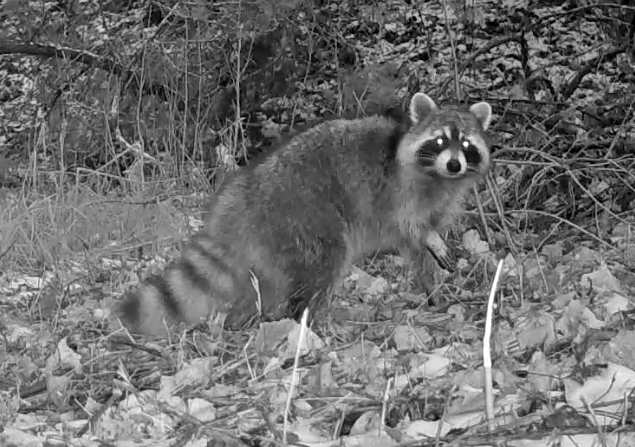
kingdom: Animalia
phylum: Chordata
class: Mammalia
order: Carnivora
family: Procyonidae
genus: Procyon
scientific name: Procyon lotor
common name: Raccoon
